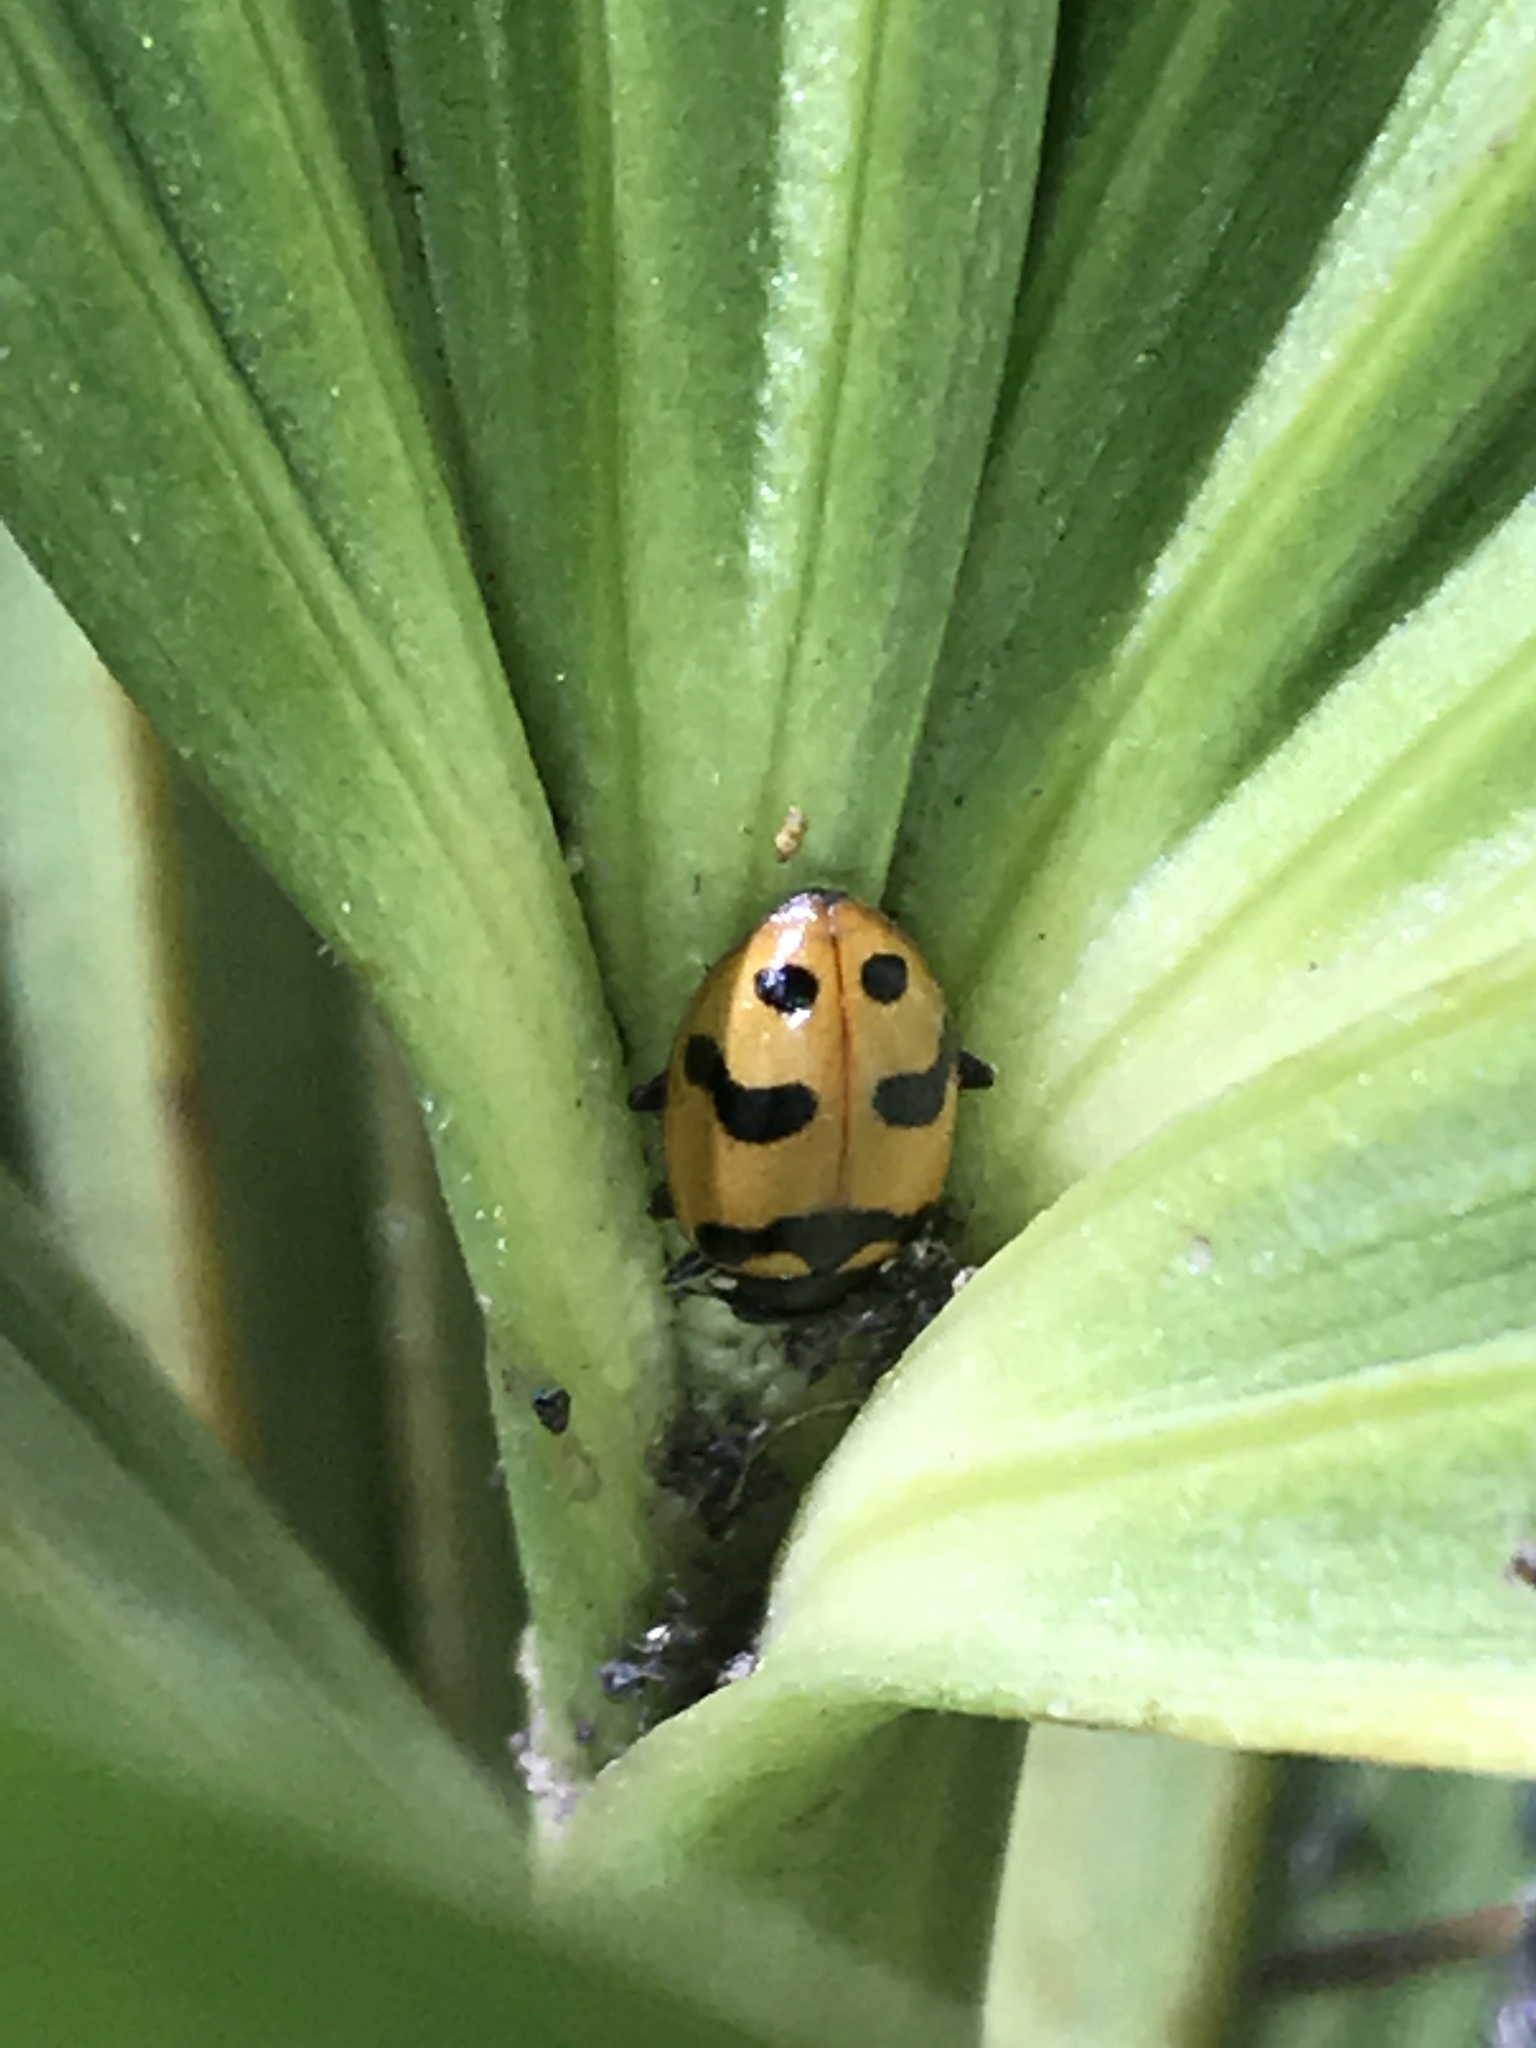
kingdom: Animalia
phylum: Arthropoda
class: Insecta
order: Coleoptera
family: Coccinellidae
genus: Hippodamia
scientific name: Hippodamia caseyi
